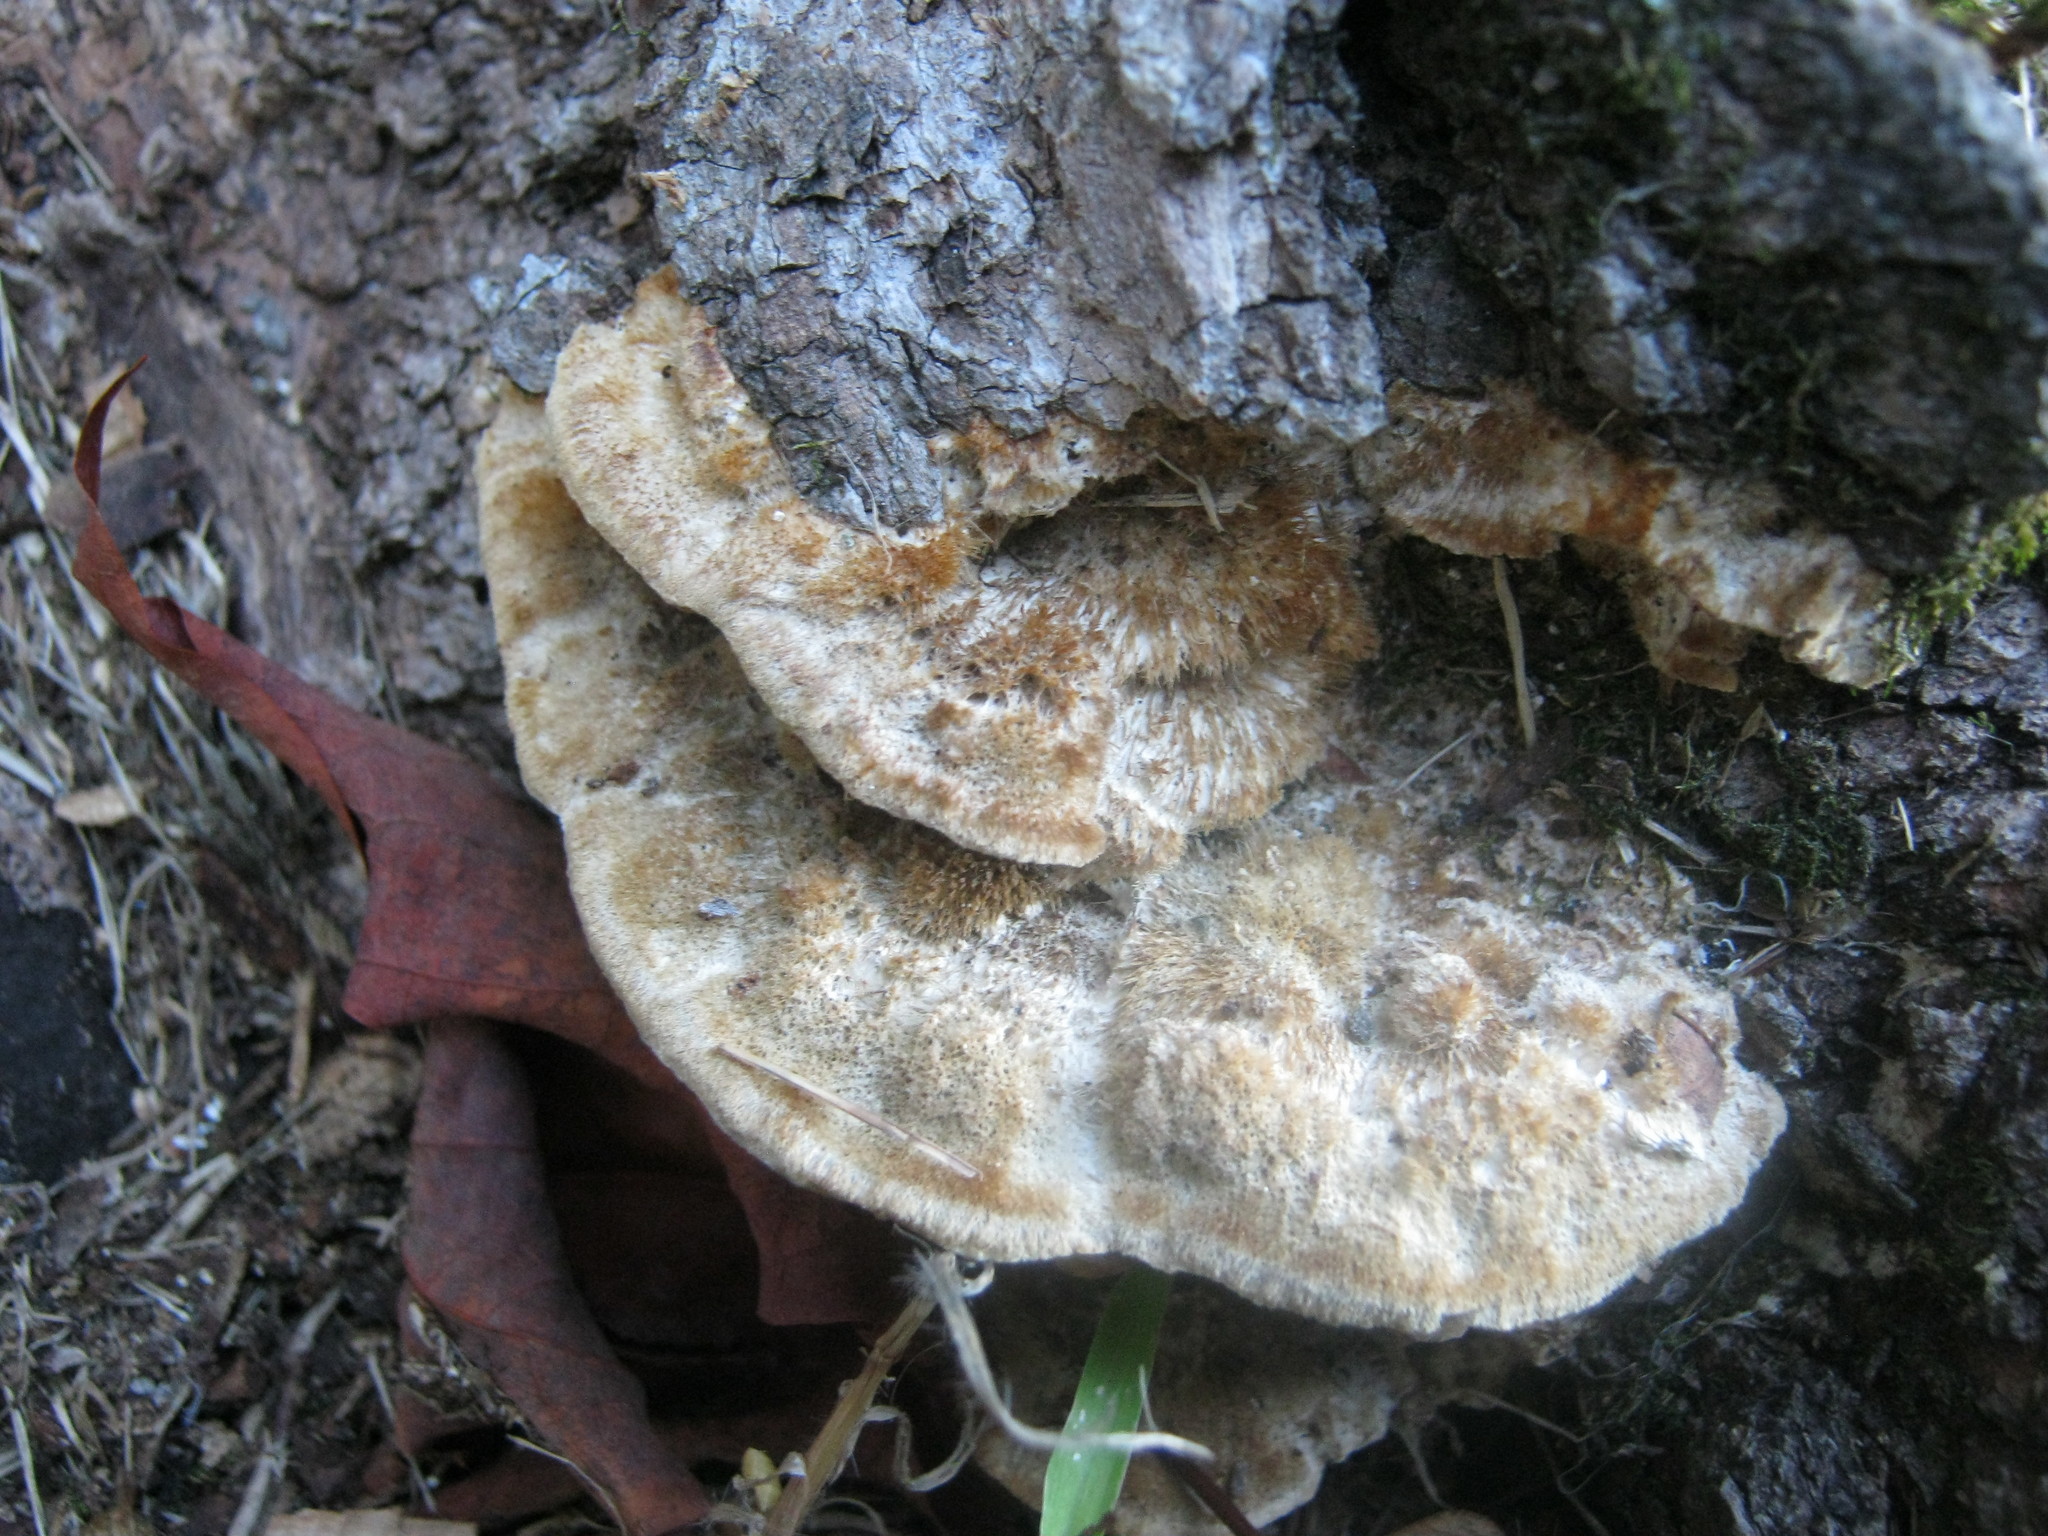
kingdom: Fungi
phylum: Basidiomycota
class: Agaricomycetes
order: Polyporales
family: Polyporaceae
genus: Trametes
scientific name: Trametes trogii
